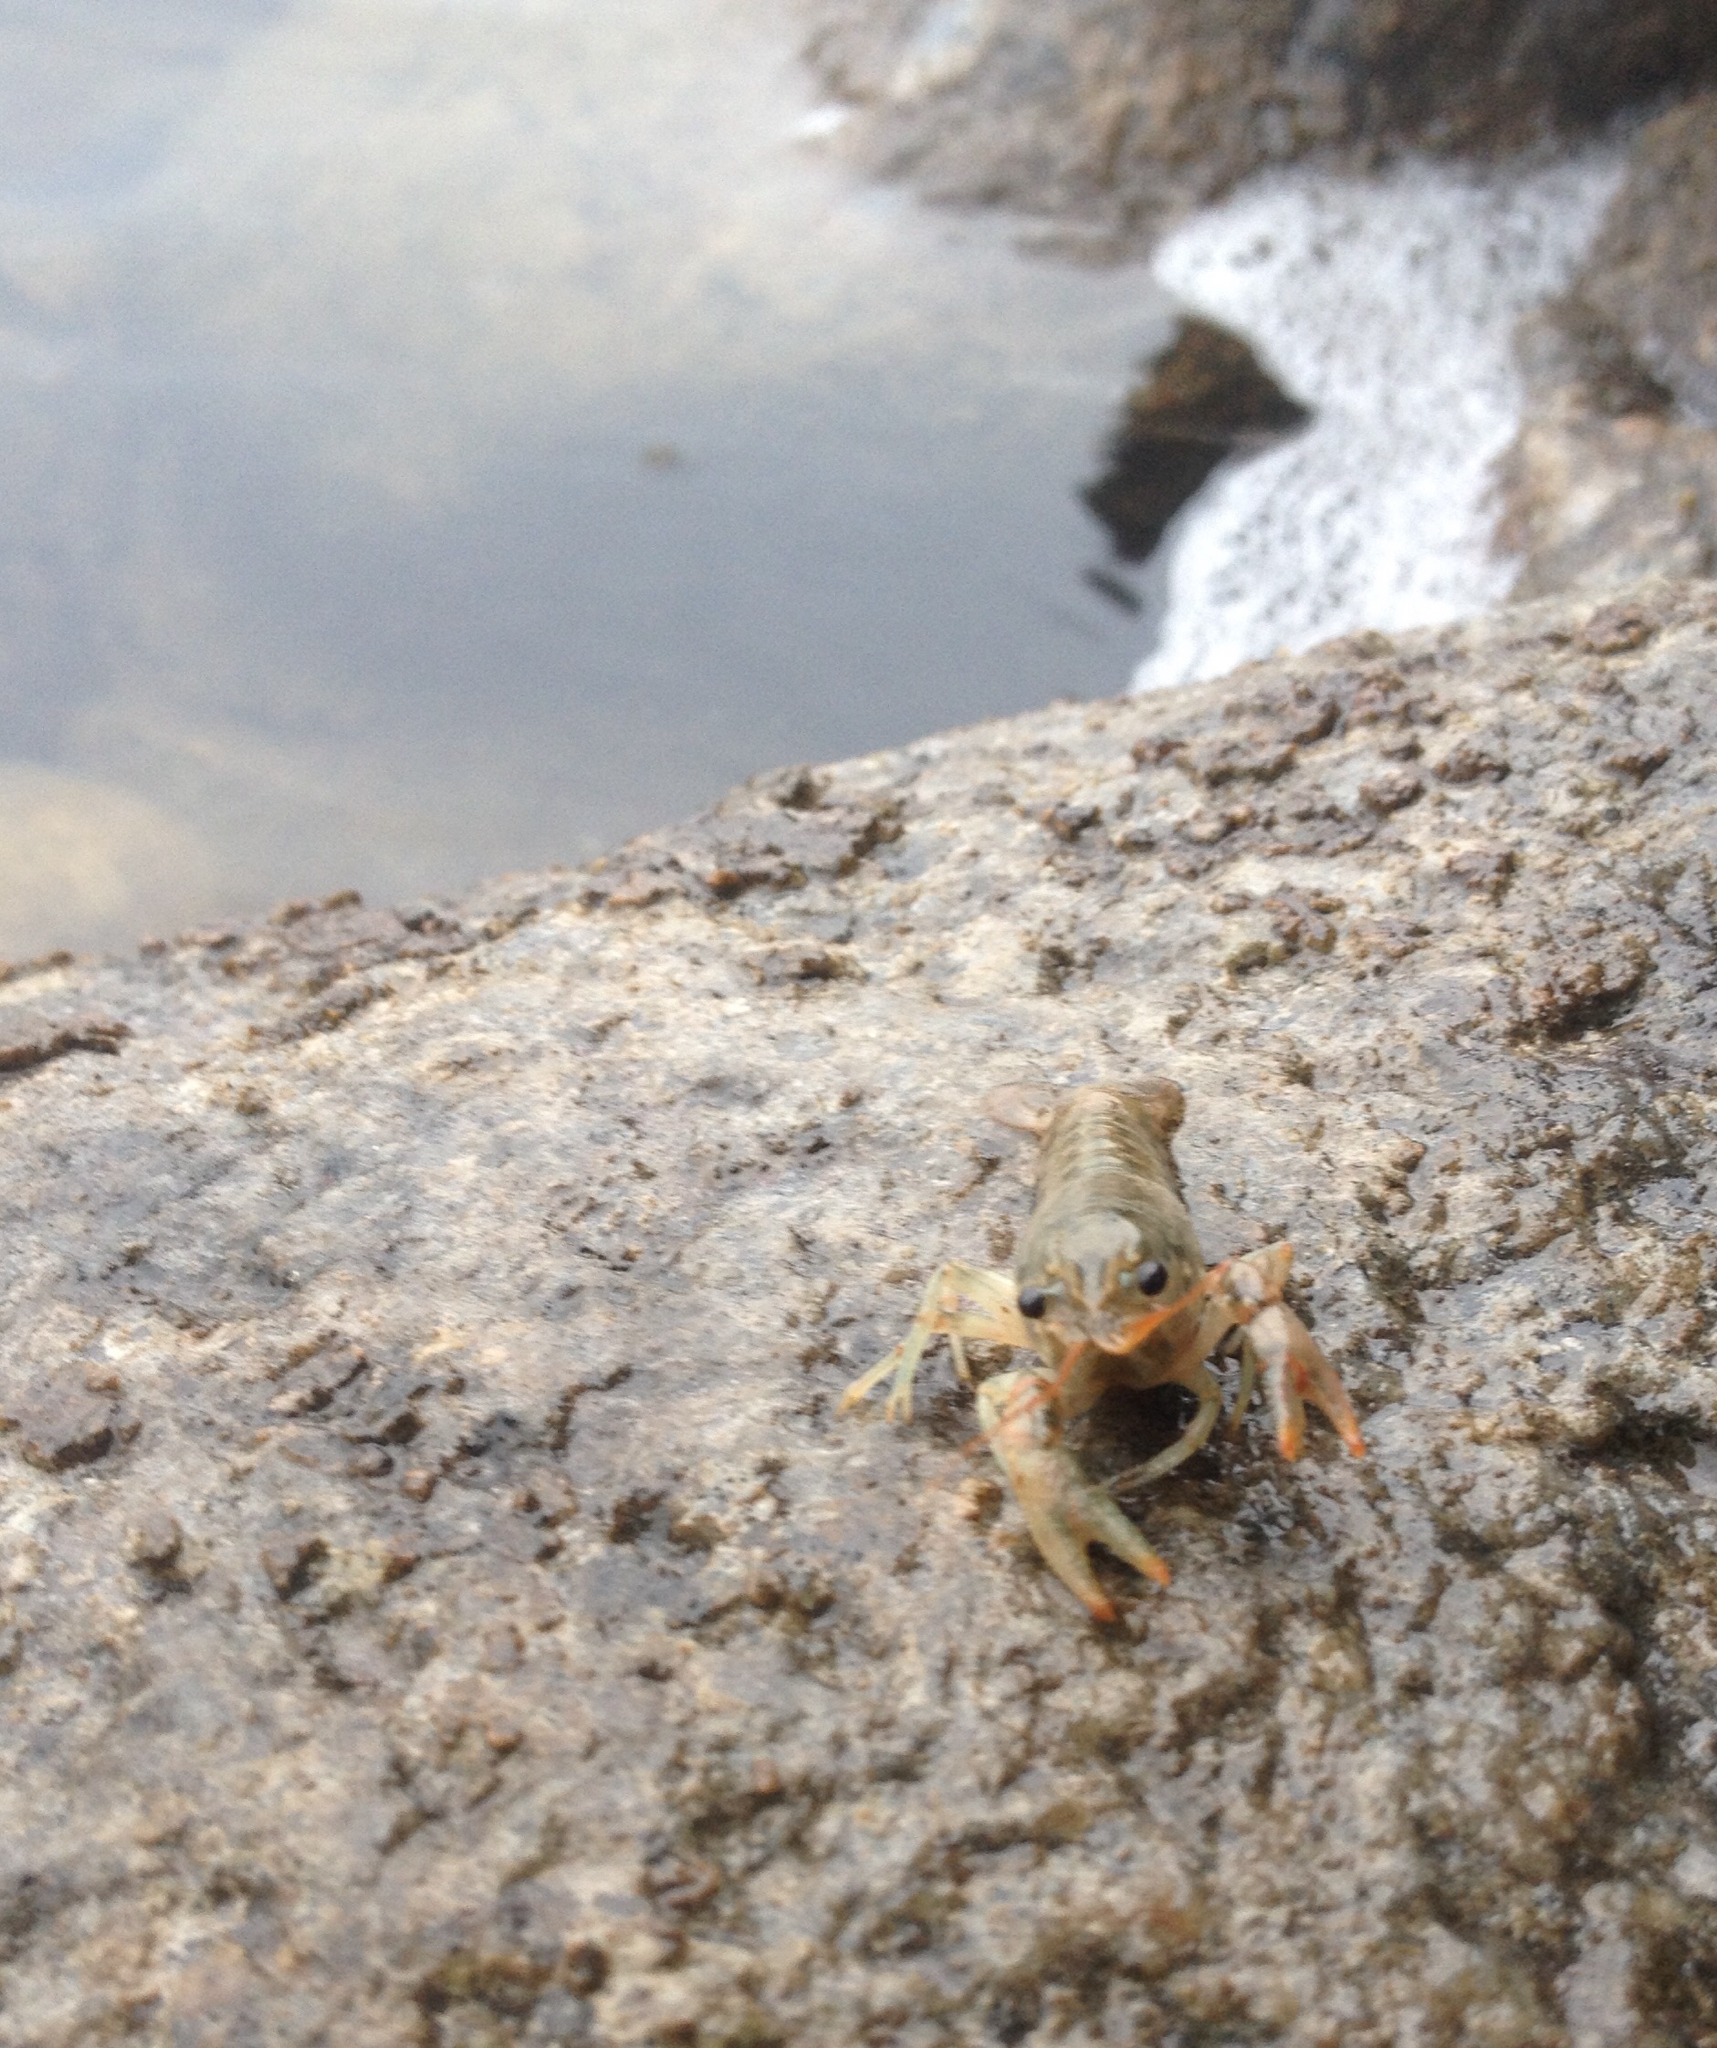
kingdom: Animalia
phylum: Arthropoda
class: Malacostraca
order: Decapoda
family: Cambaridae
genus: Faxonius
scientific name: Faxonius virilis
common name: Virile crayfish
